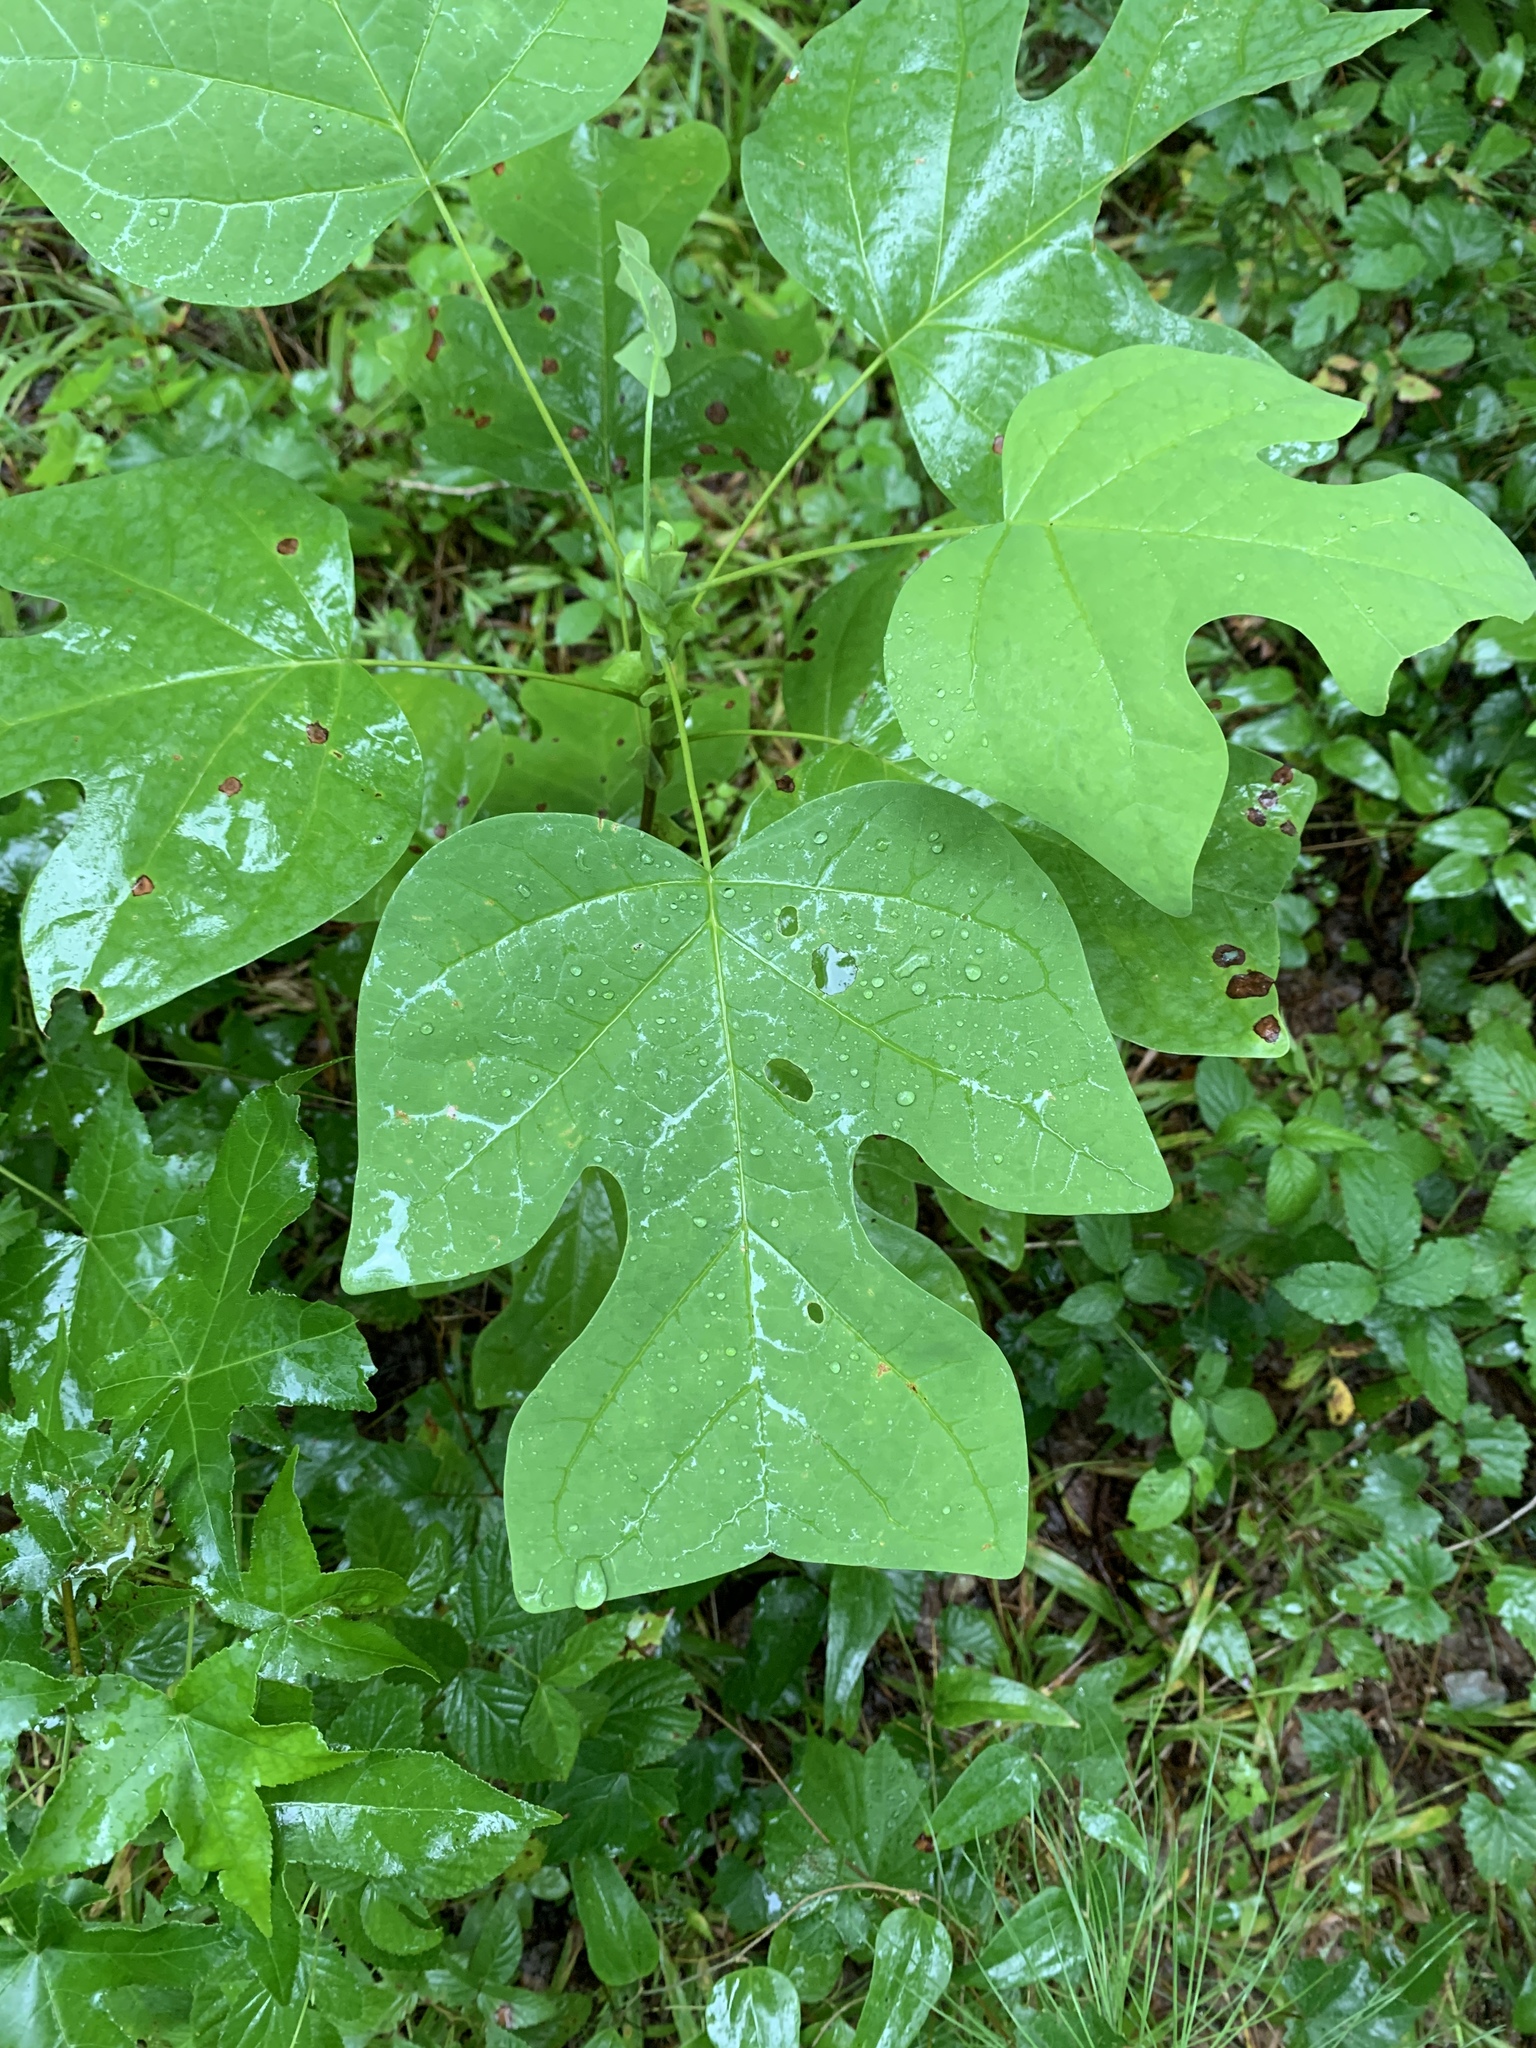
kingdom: Plantae
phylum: Tracheophyta
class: Magnoliopsida
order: Magnoliales
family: Magnoliaceae
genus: Liriodendron
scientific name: Liriodendron tulipifera
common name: Tulip tree
